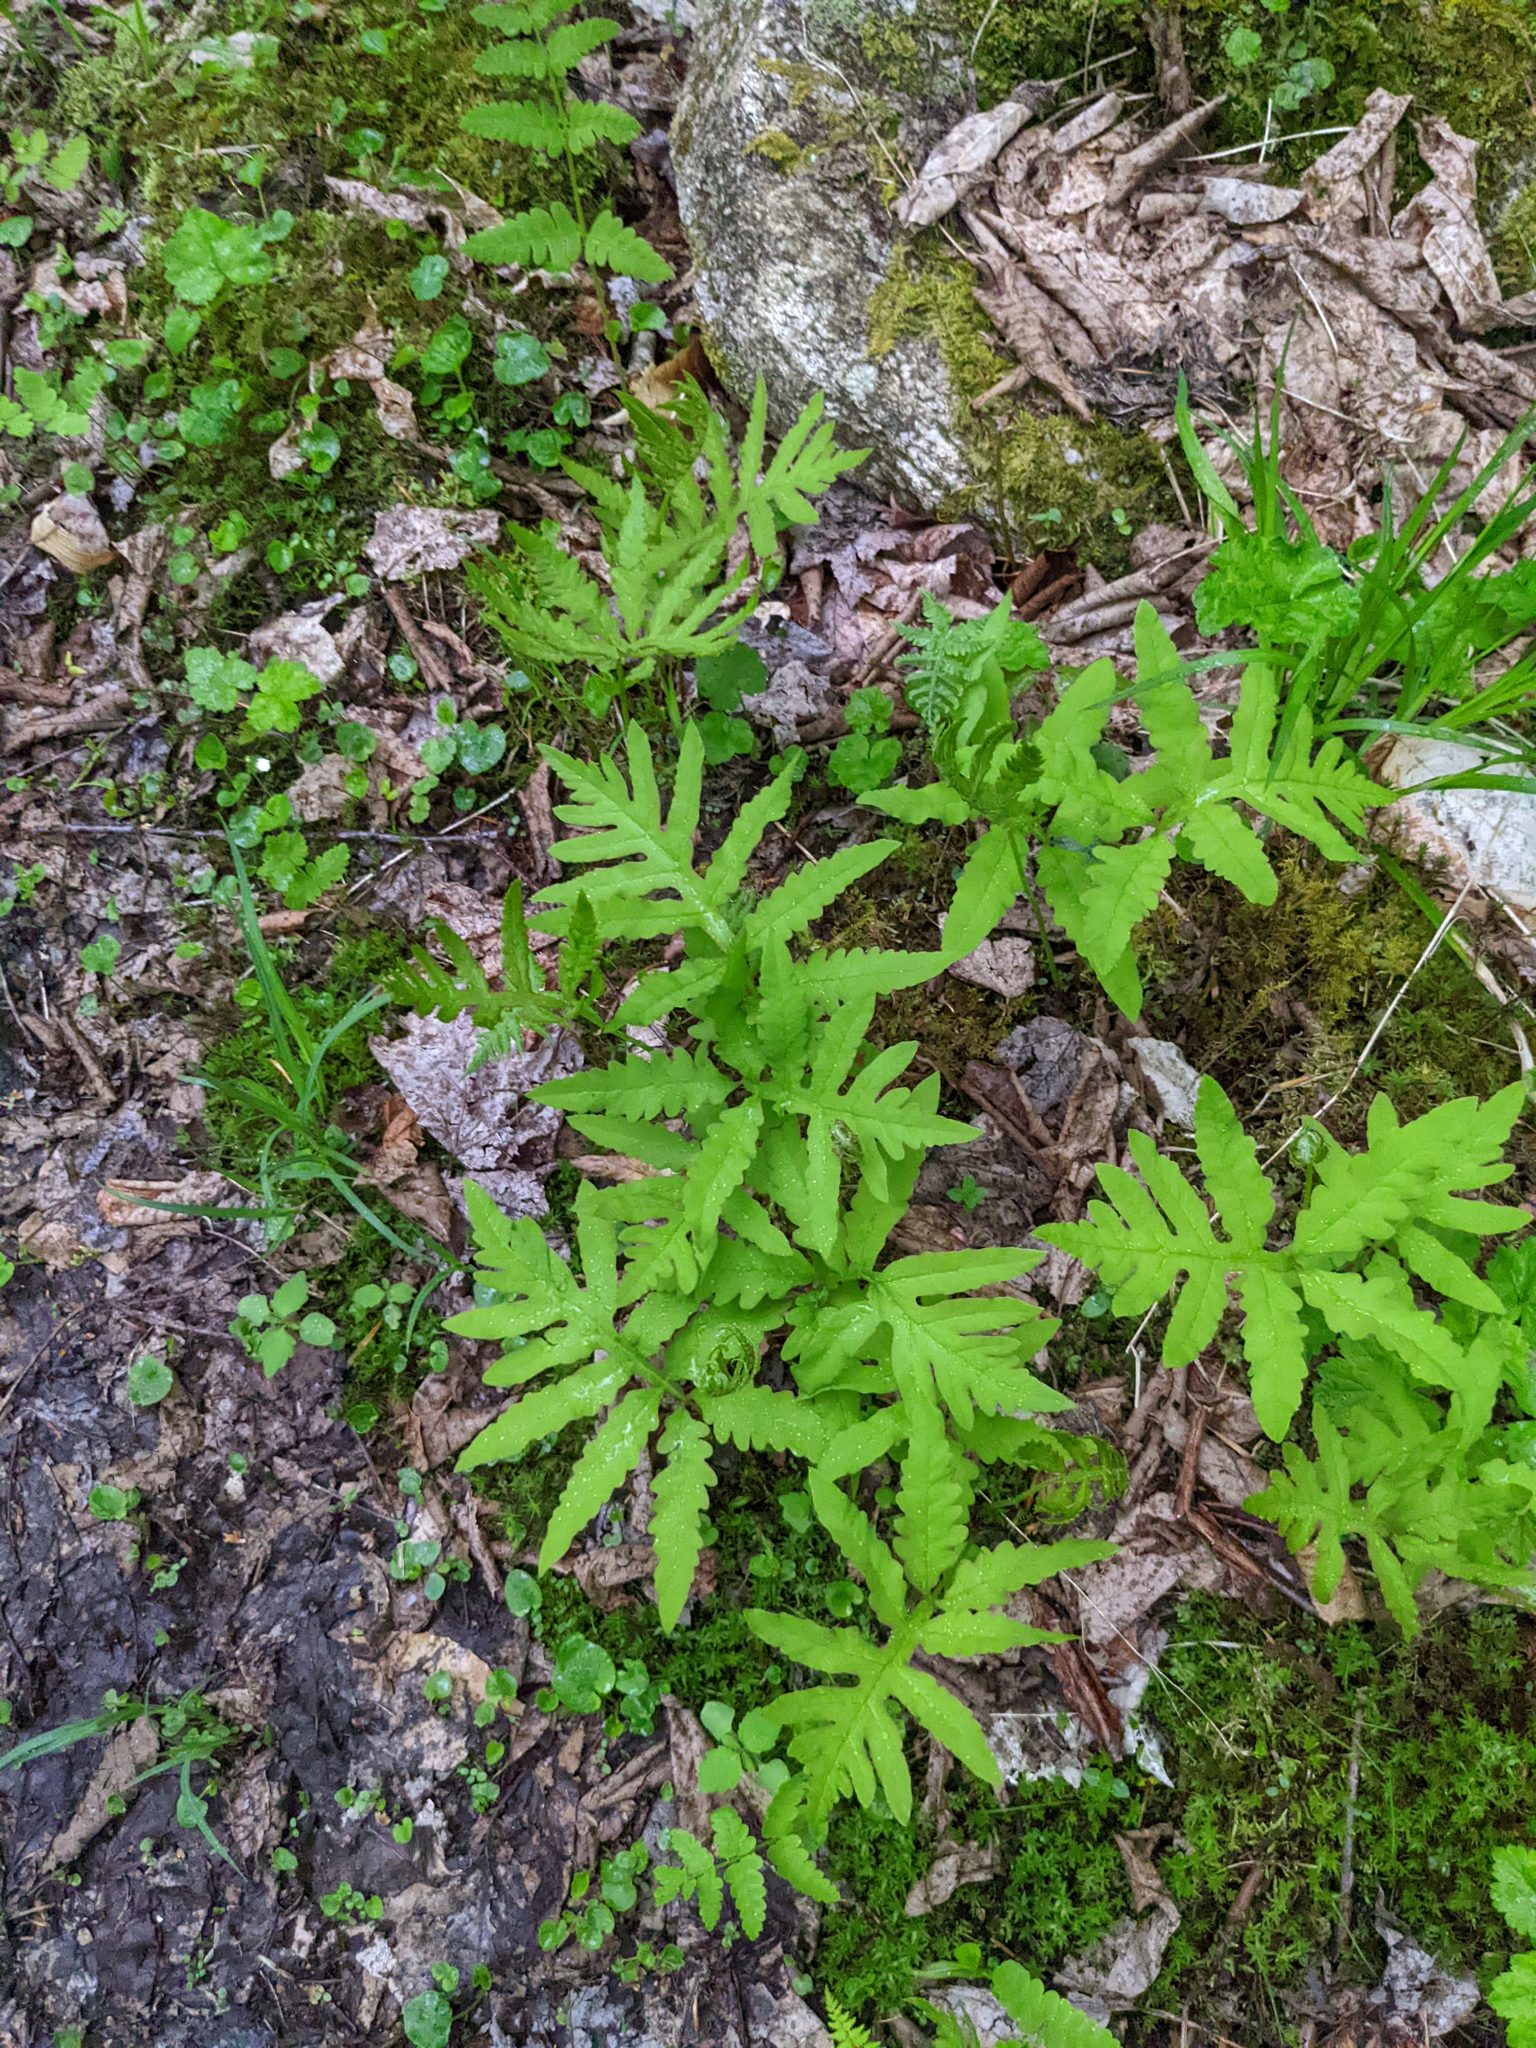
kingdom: Plantae
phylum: Tracheophyta
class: Polypodiopsida
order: Polypodiales
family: Onocleaceae
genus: Onoclea
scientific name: Onoclea sensibilis
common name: Sensitive fern
